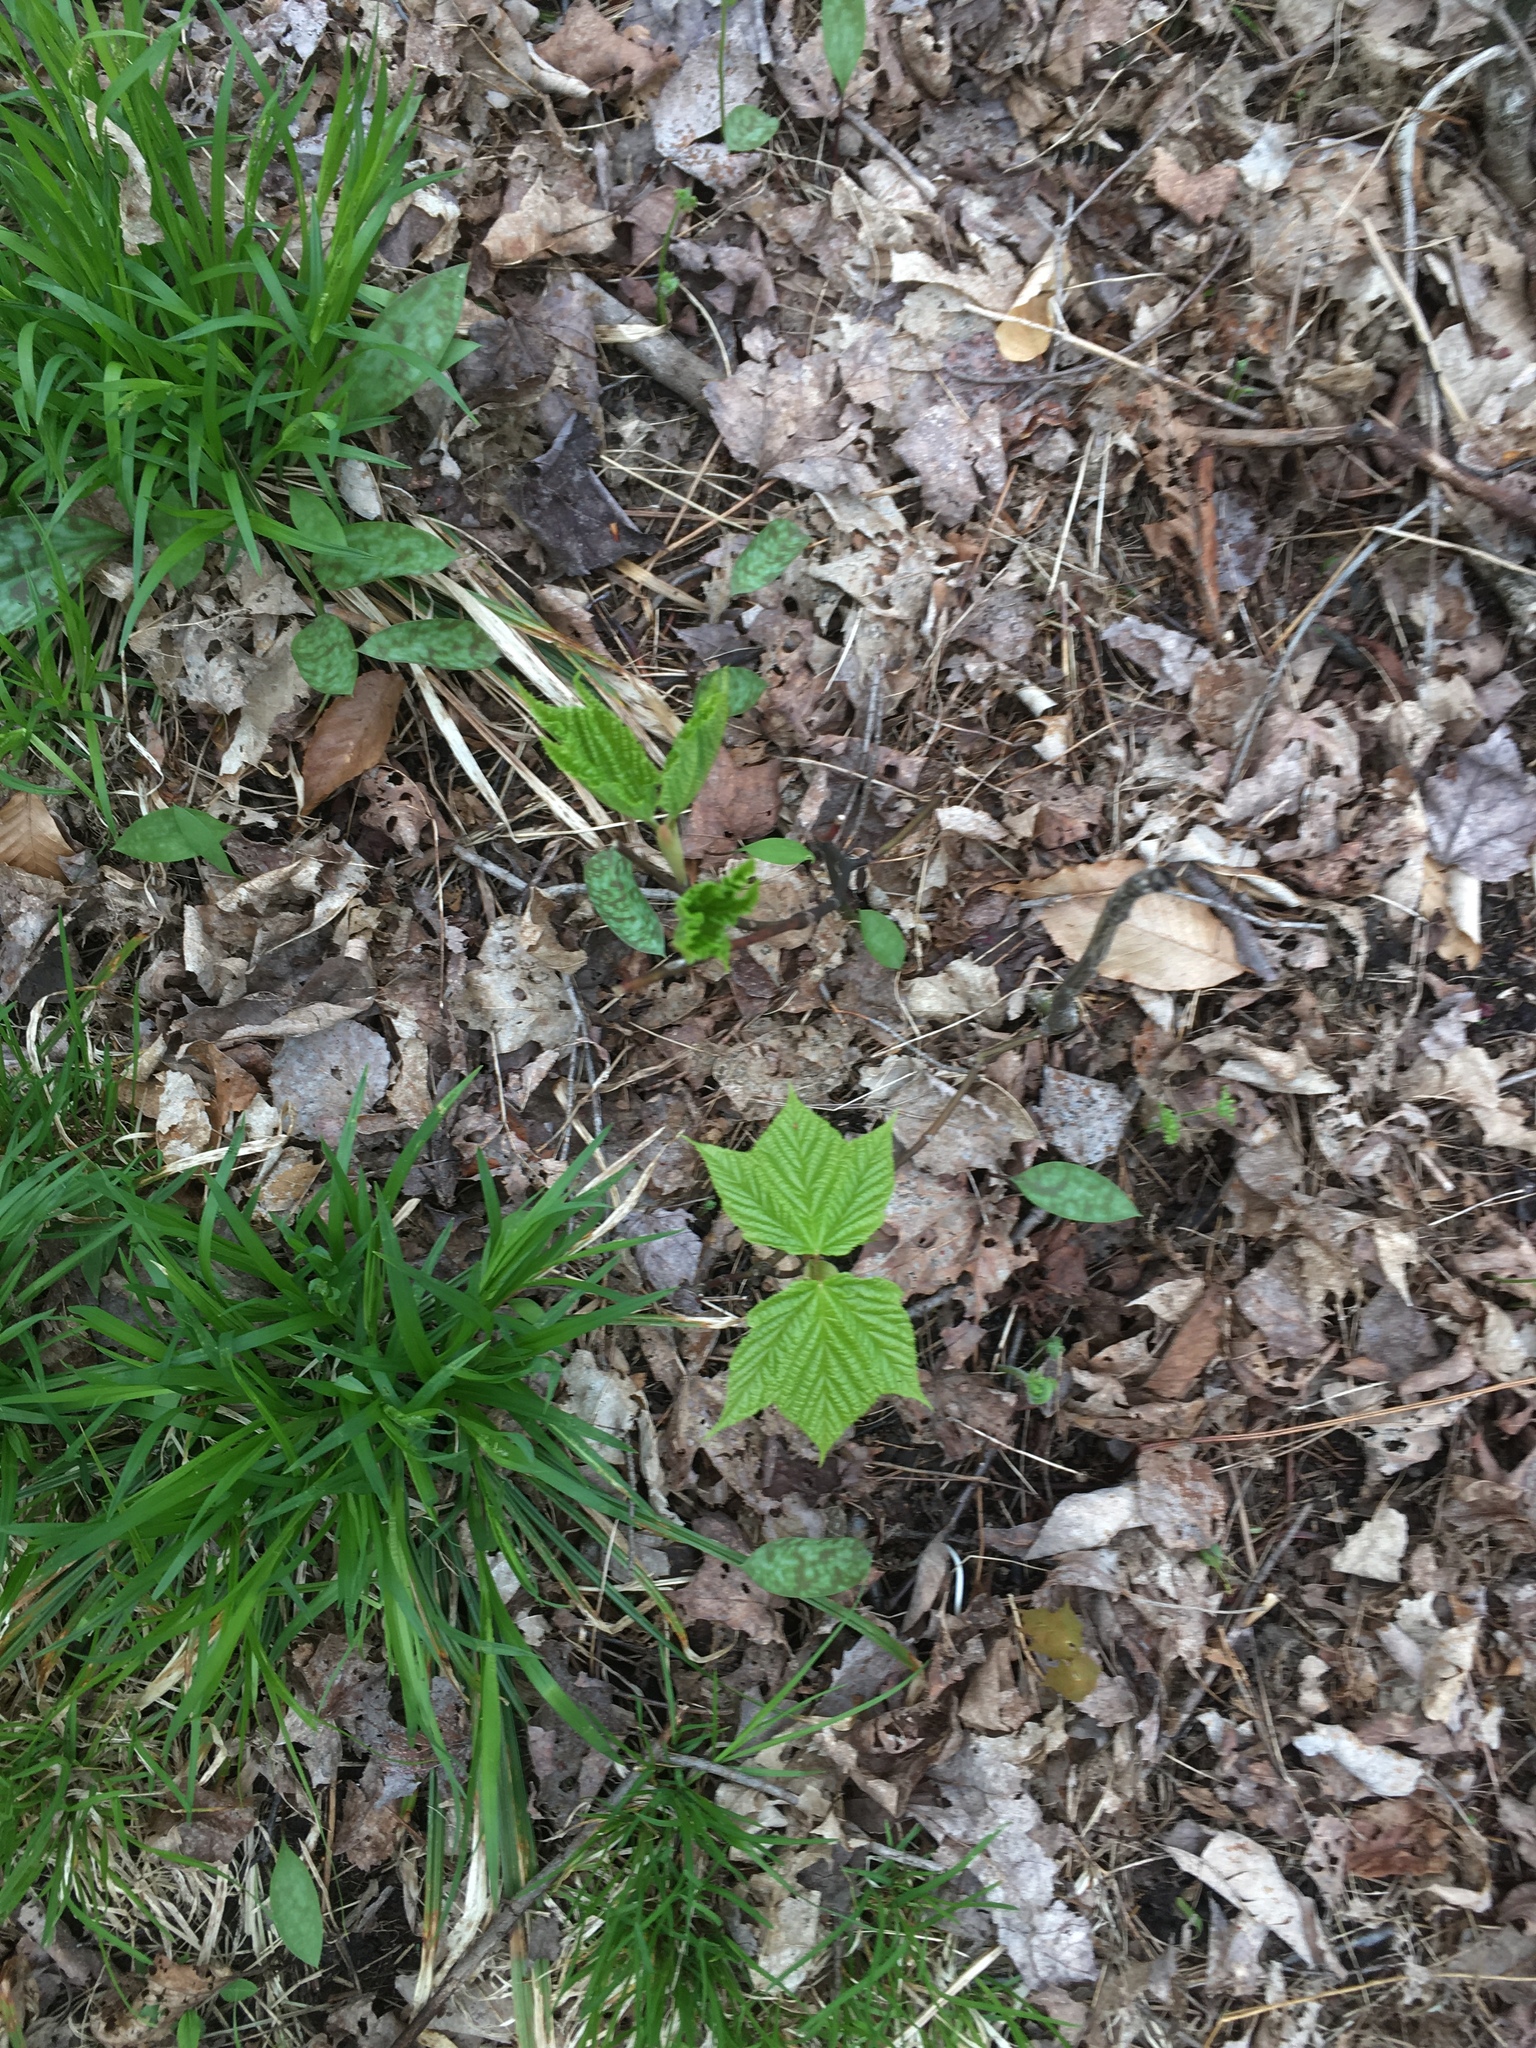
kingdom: Plantae
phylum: Tracheophyta
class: Magnoliopsida
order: Sapindales
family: Sapindaceae
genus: Acer
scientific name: Acer pensylvanicum
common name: Moosewood
